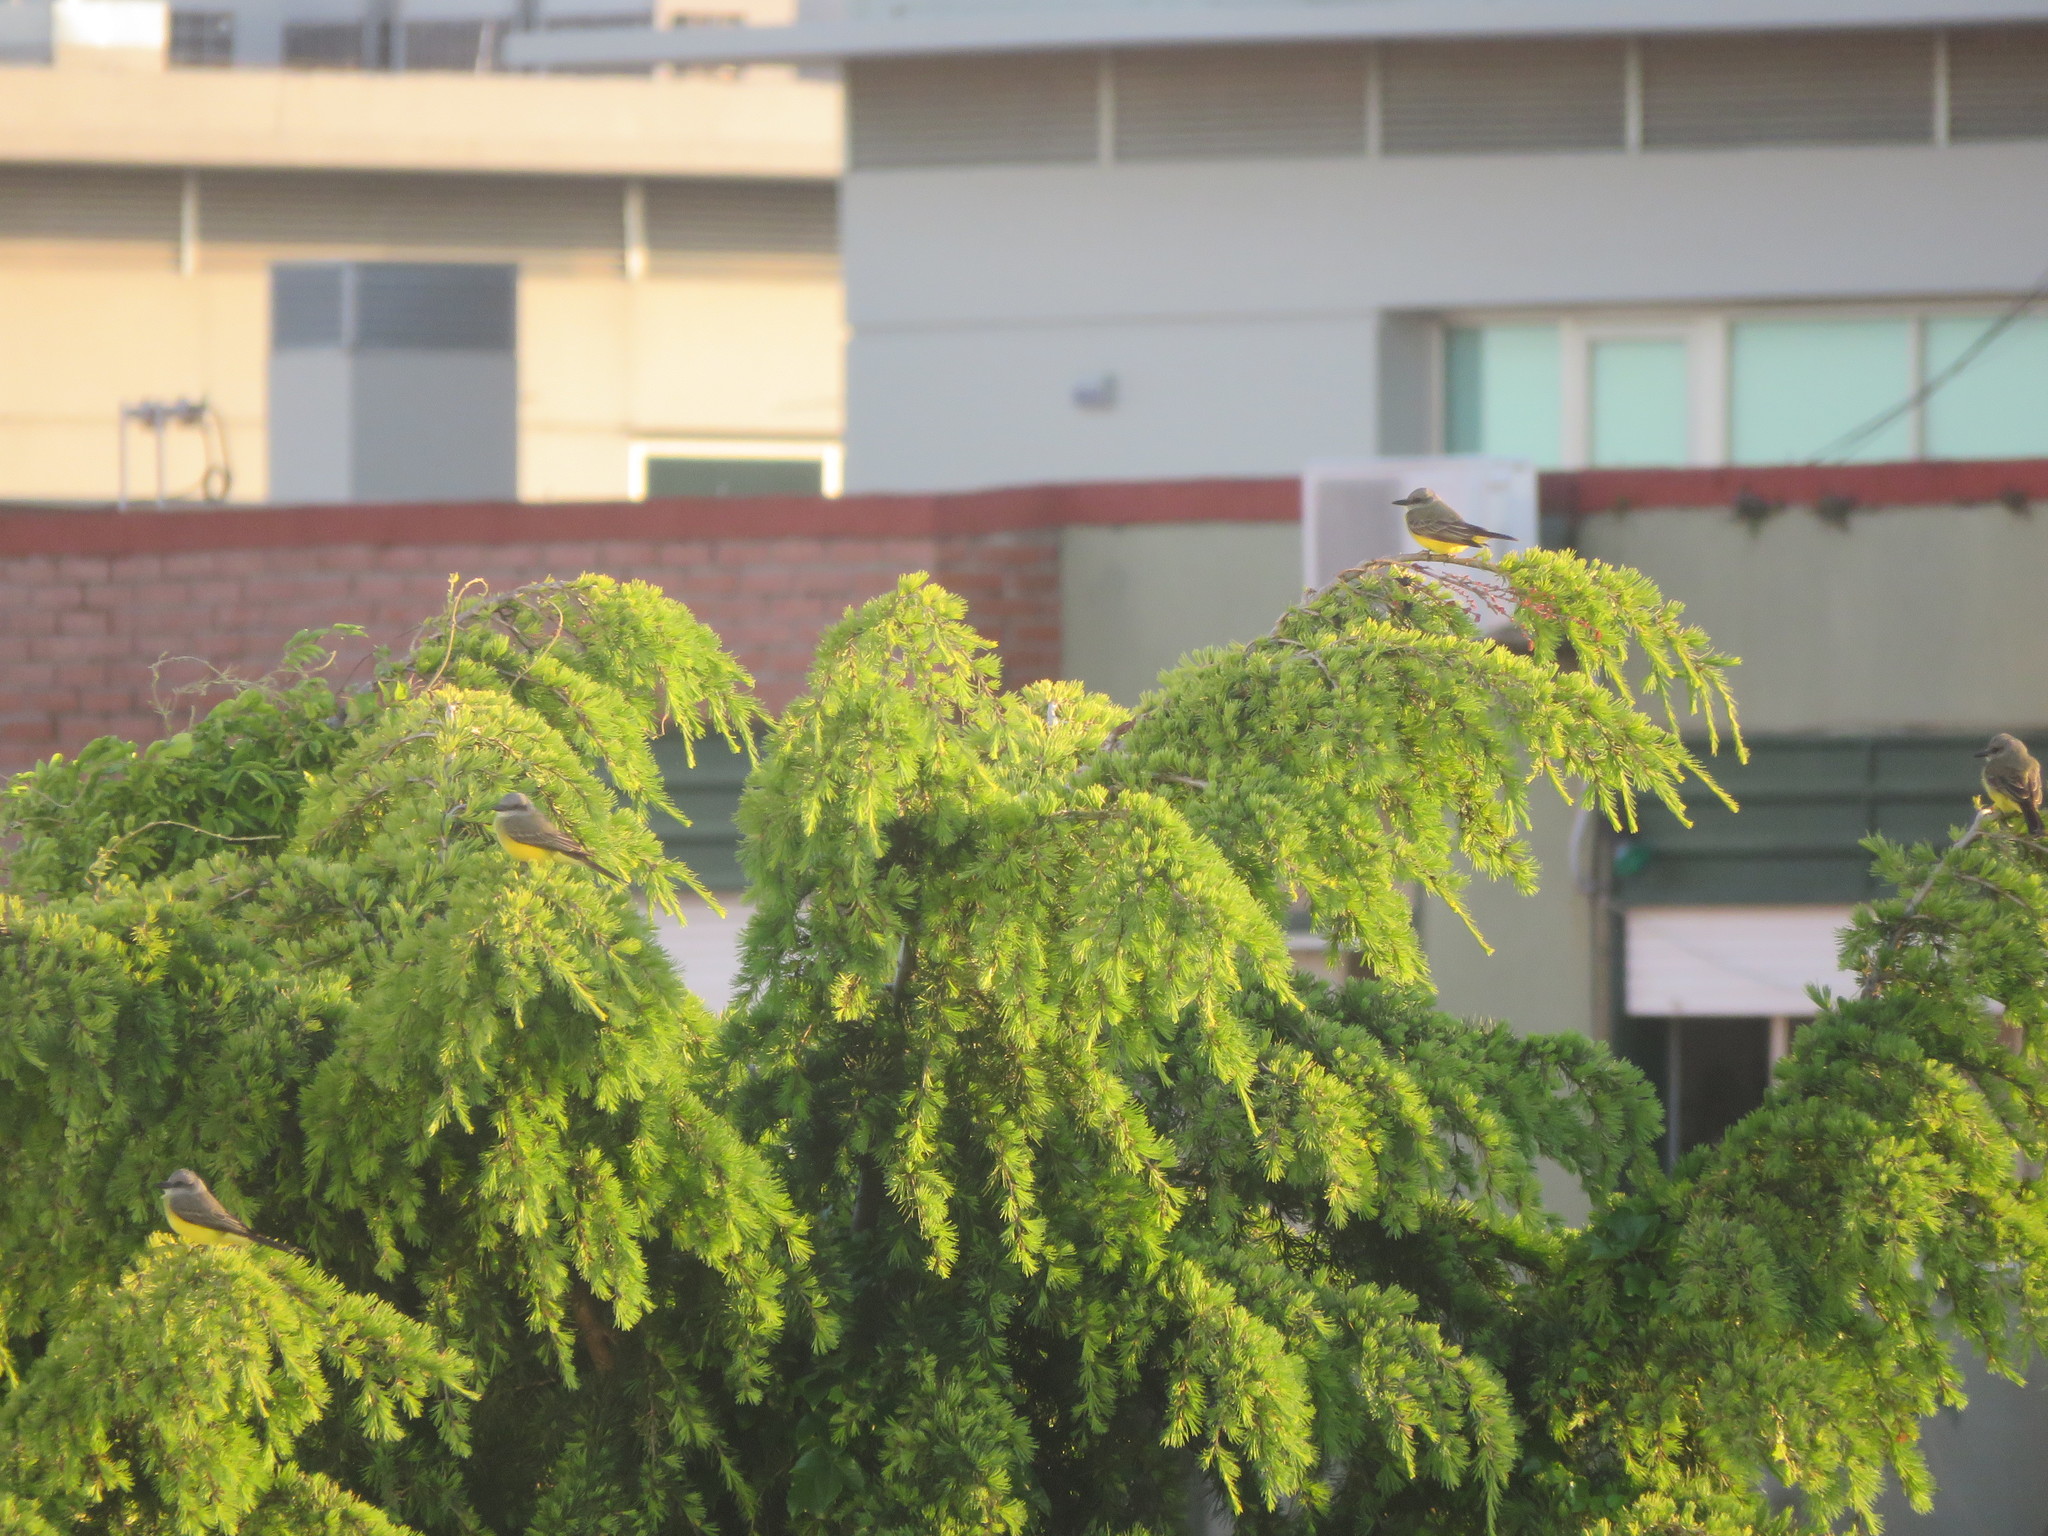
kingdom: Animalia
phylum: Chordata
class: Aves
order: Passeriformes
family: Tyrannidae
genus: Tyrannus
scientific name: Tyrannus melancholicus
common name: Tropical kingbird
